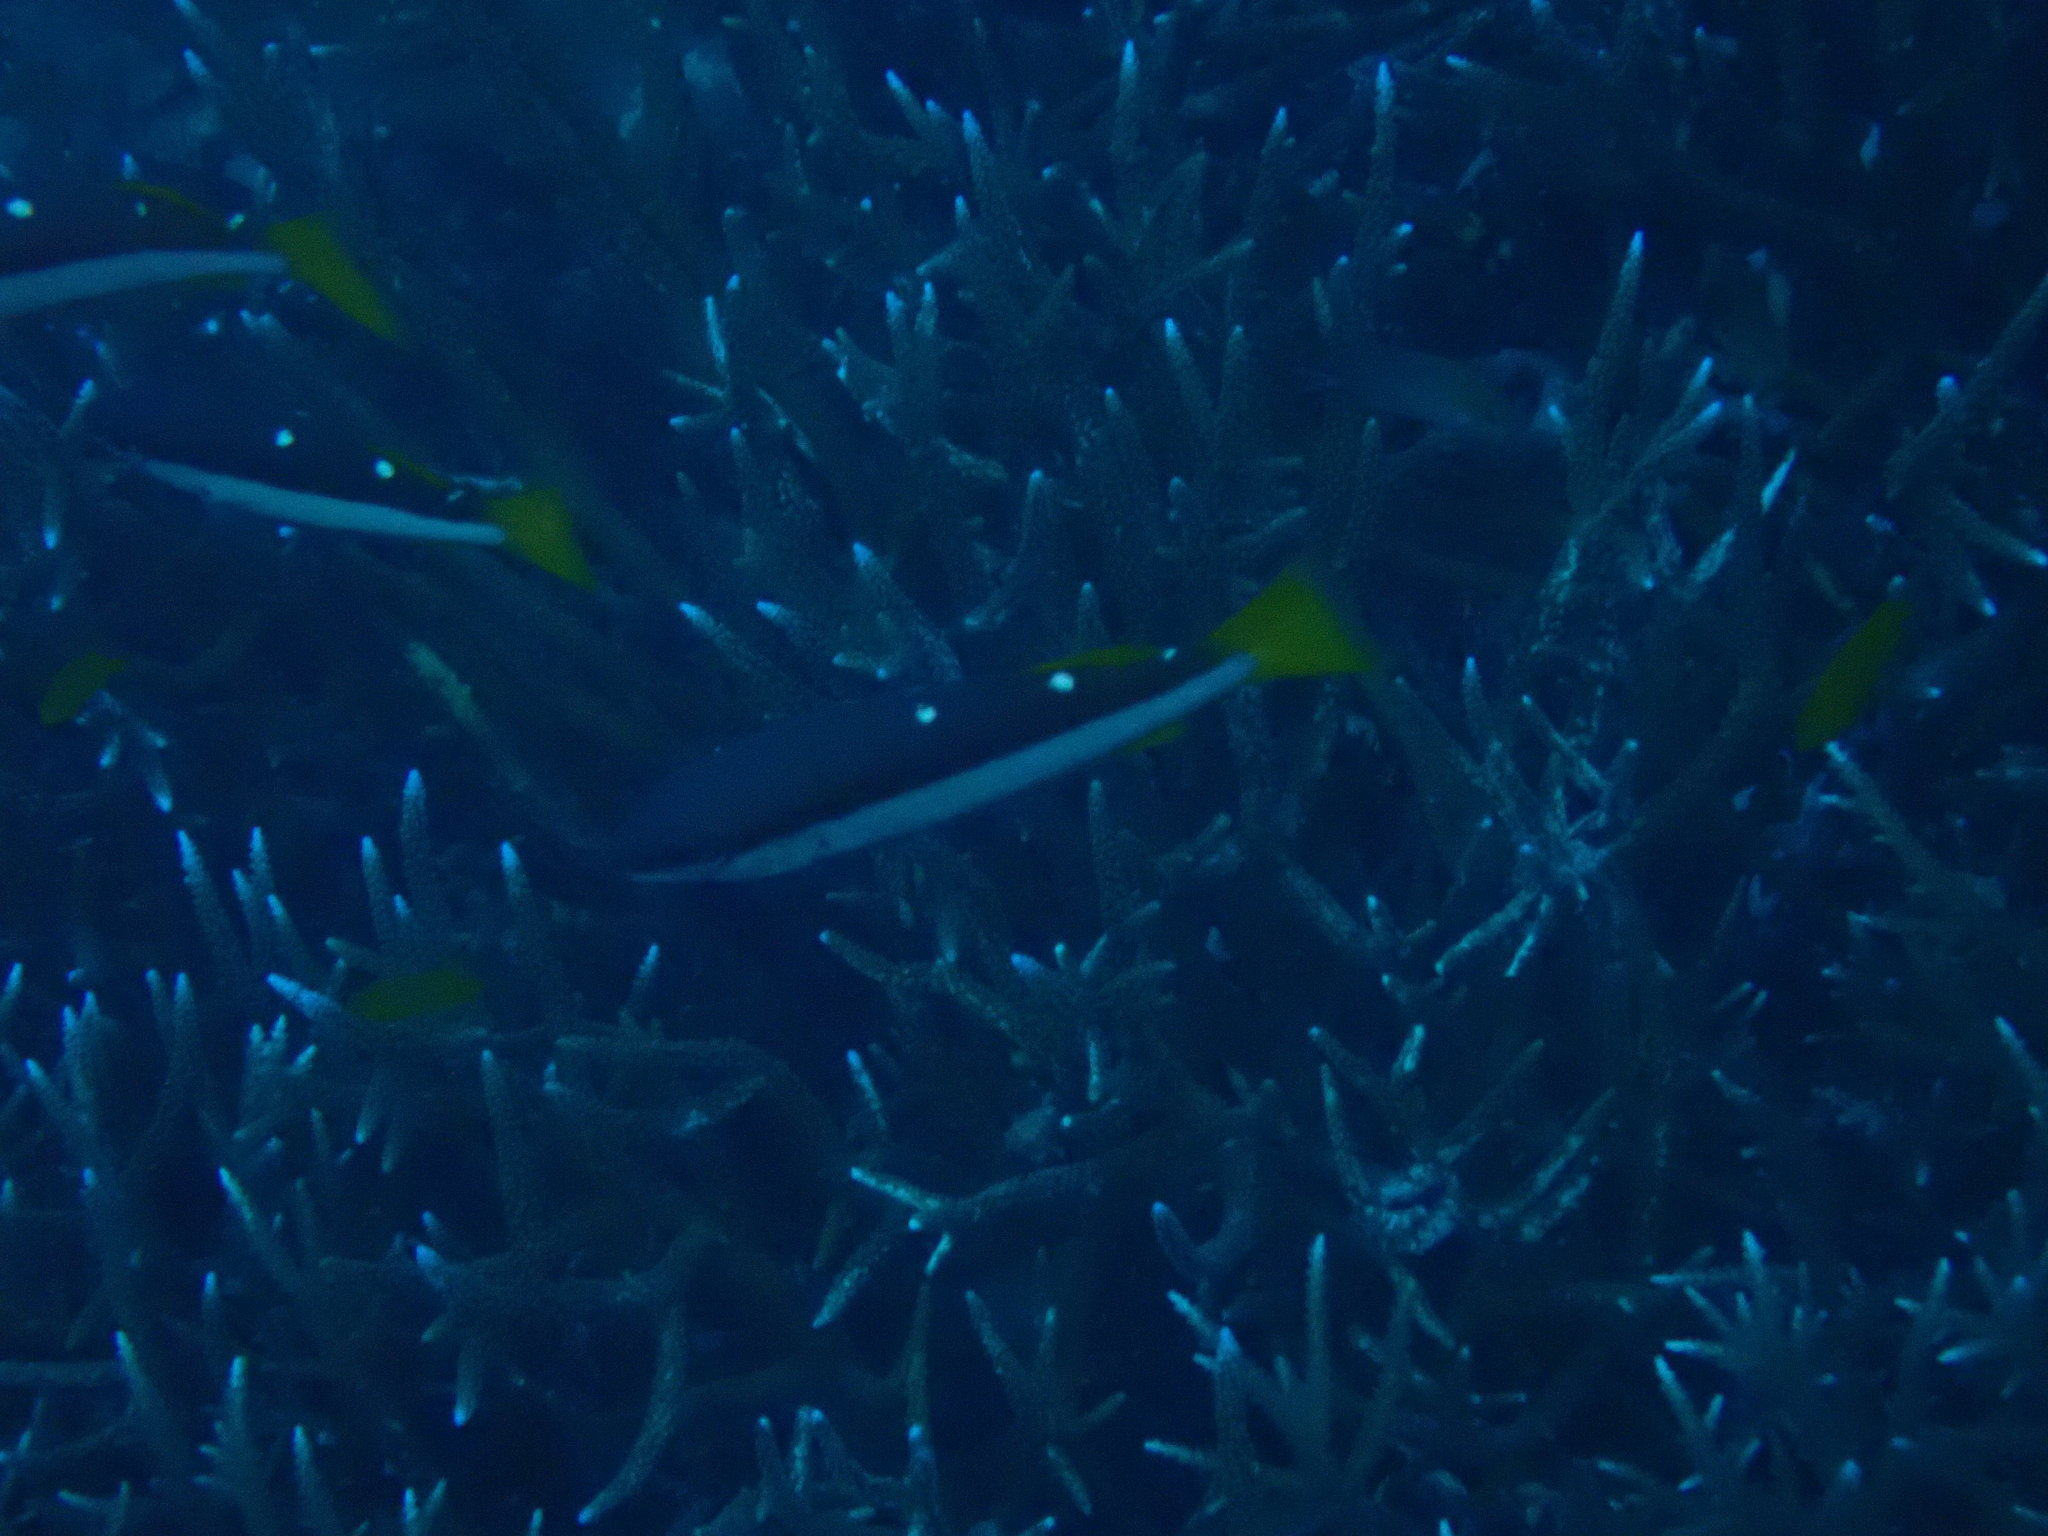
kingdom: Animalia
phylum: Chordata
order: Perciformes
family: Lutjanidae
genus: Lutjanus
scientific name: Lutjanus biguttatus
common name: Two-spot snapper
